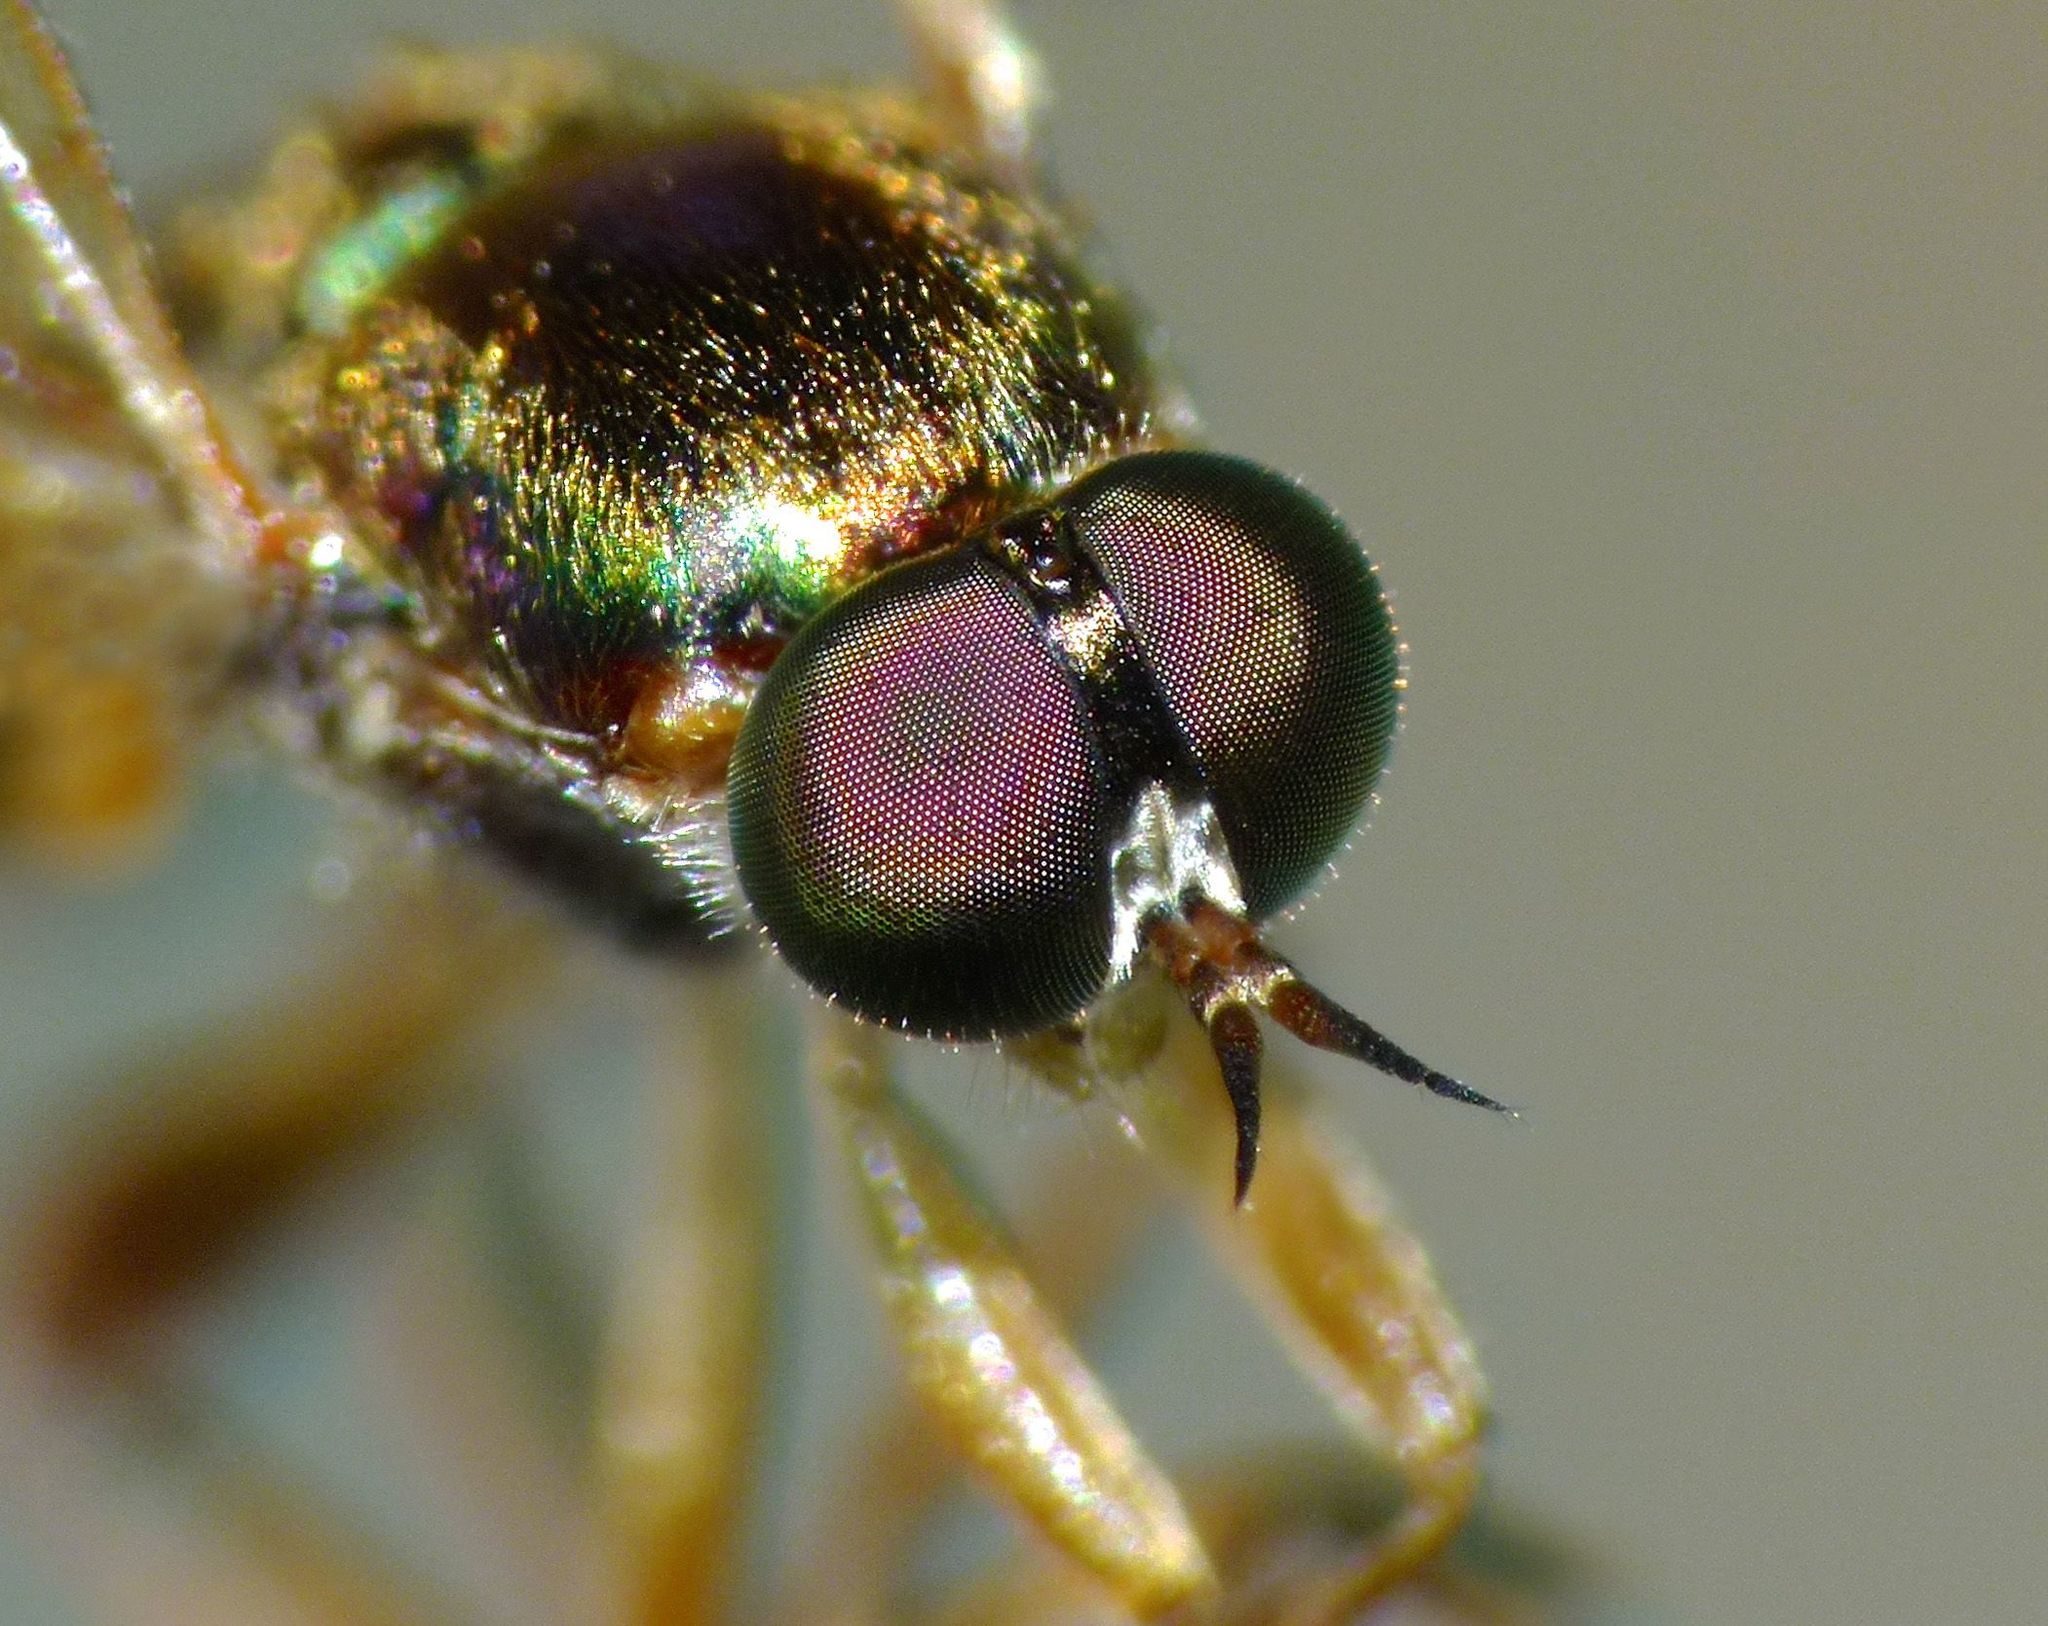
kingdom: Animalia
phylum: Arthropoda
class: Insecta
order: Diptera
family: Stratiomyidae
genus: Neactina
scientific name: Neactina opposita
